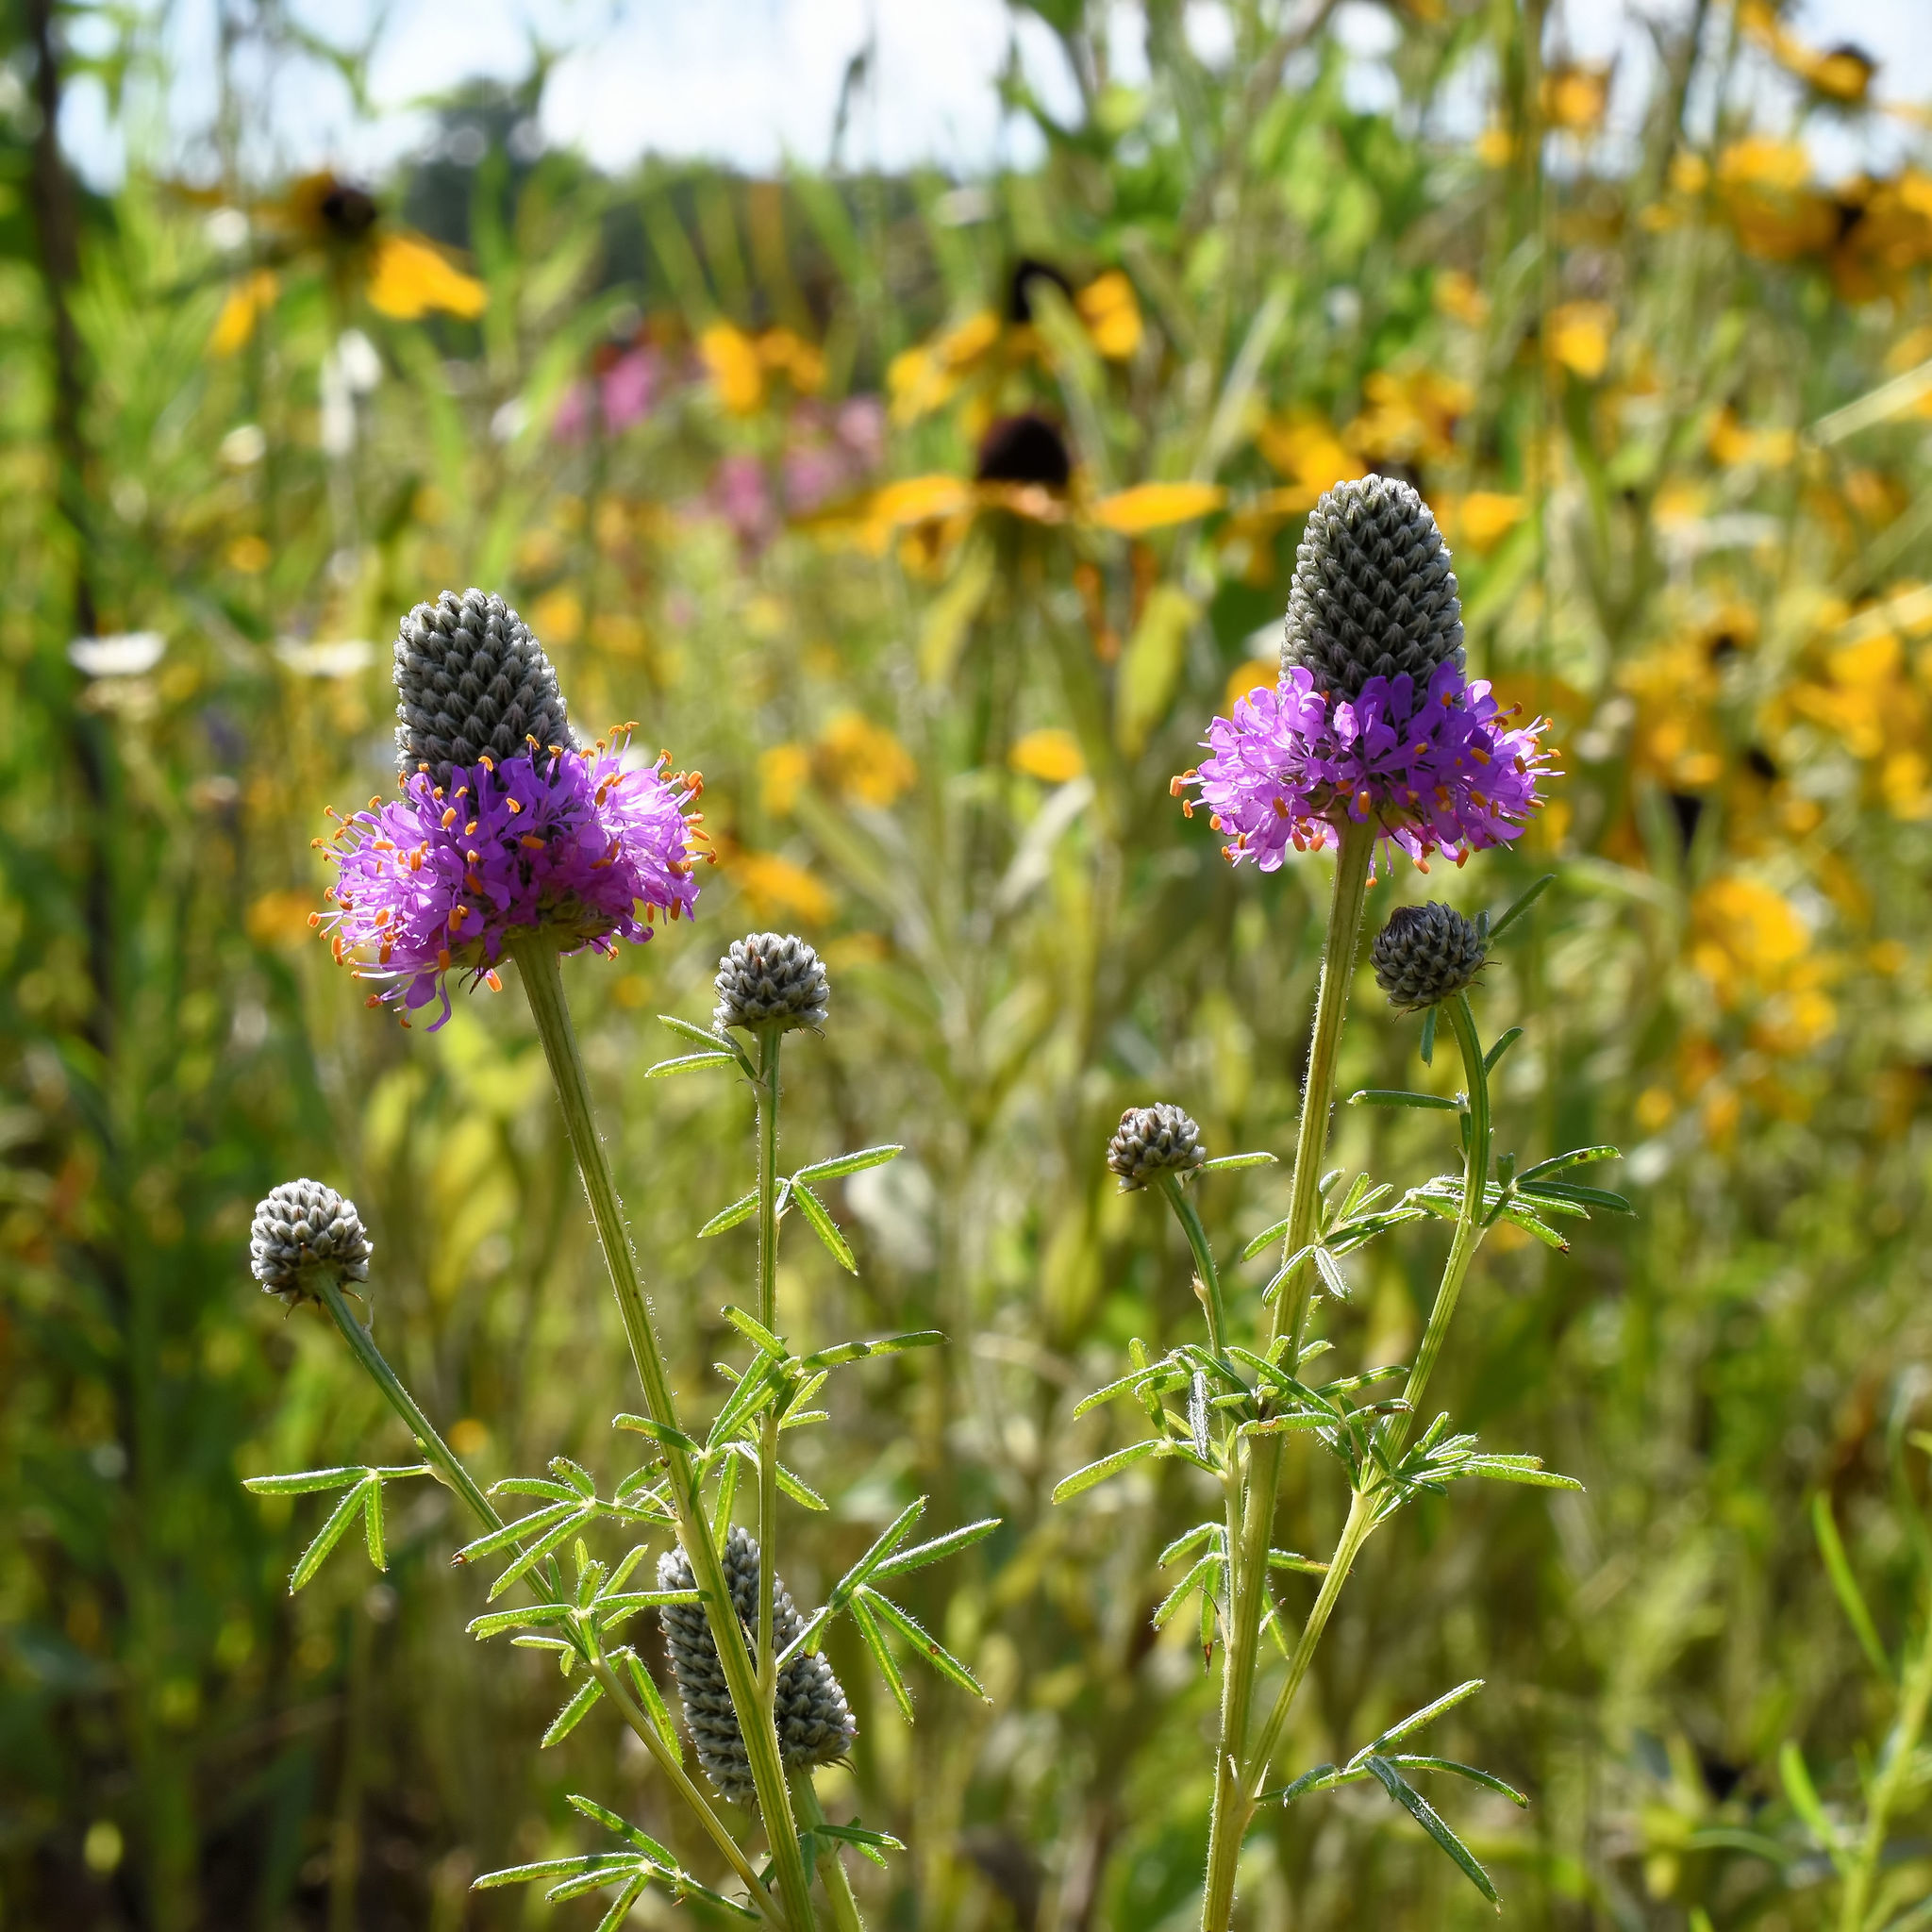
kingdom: Plantae
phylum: Tracheophyta
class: Magnoliopsida
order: Fabales
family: Fabaceae
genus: Dalea
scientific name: Dalea purpurea
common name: Purple prairie-clover
